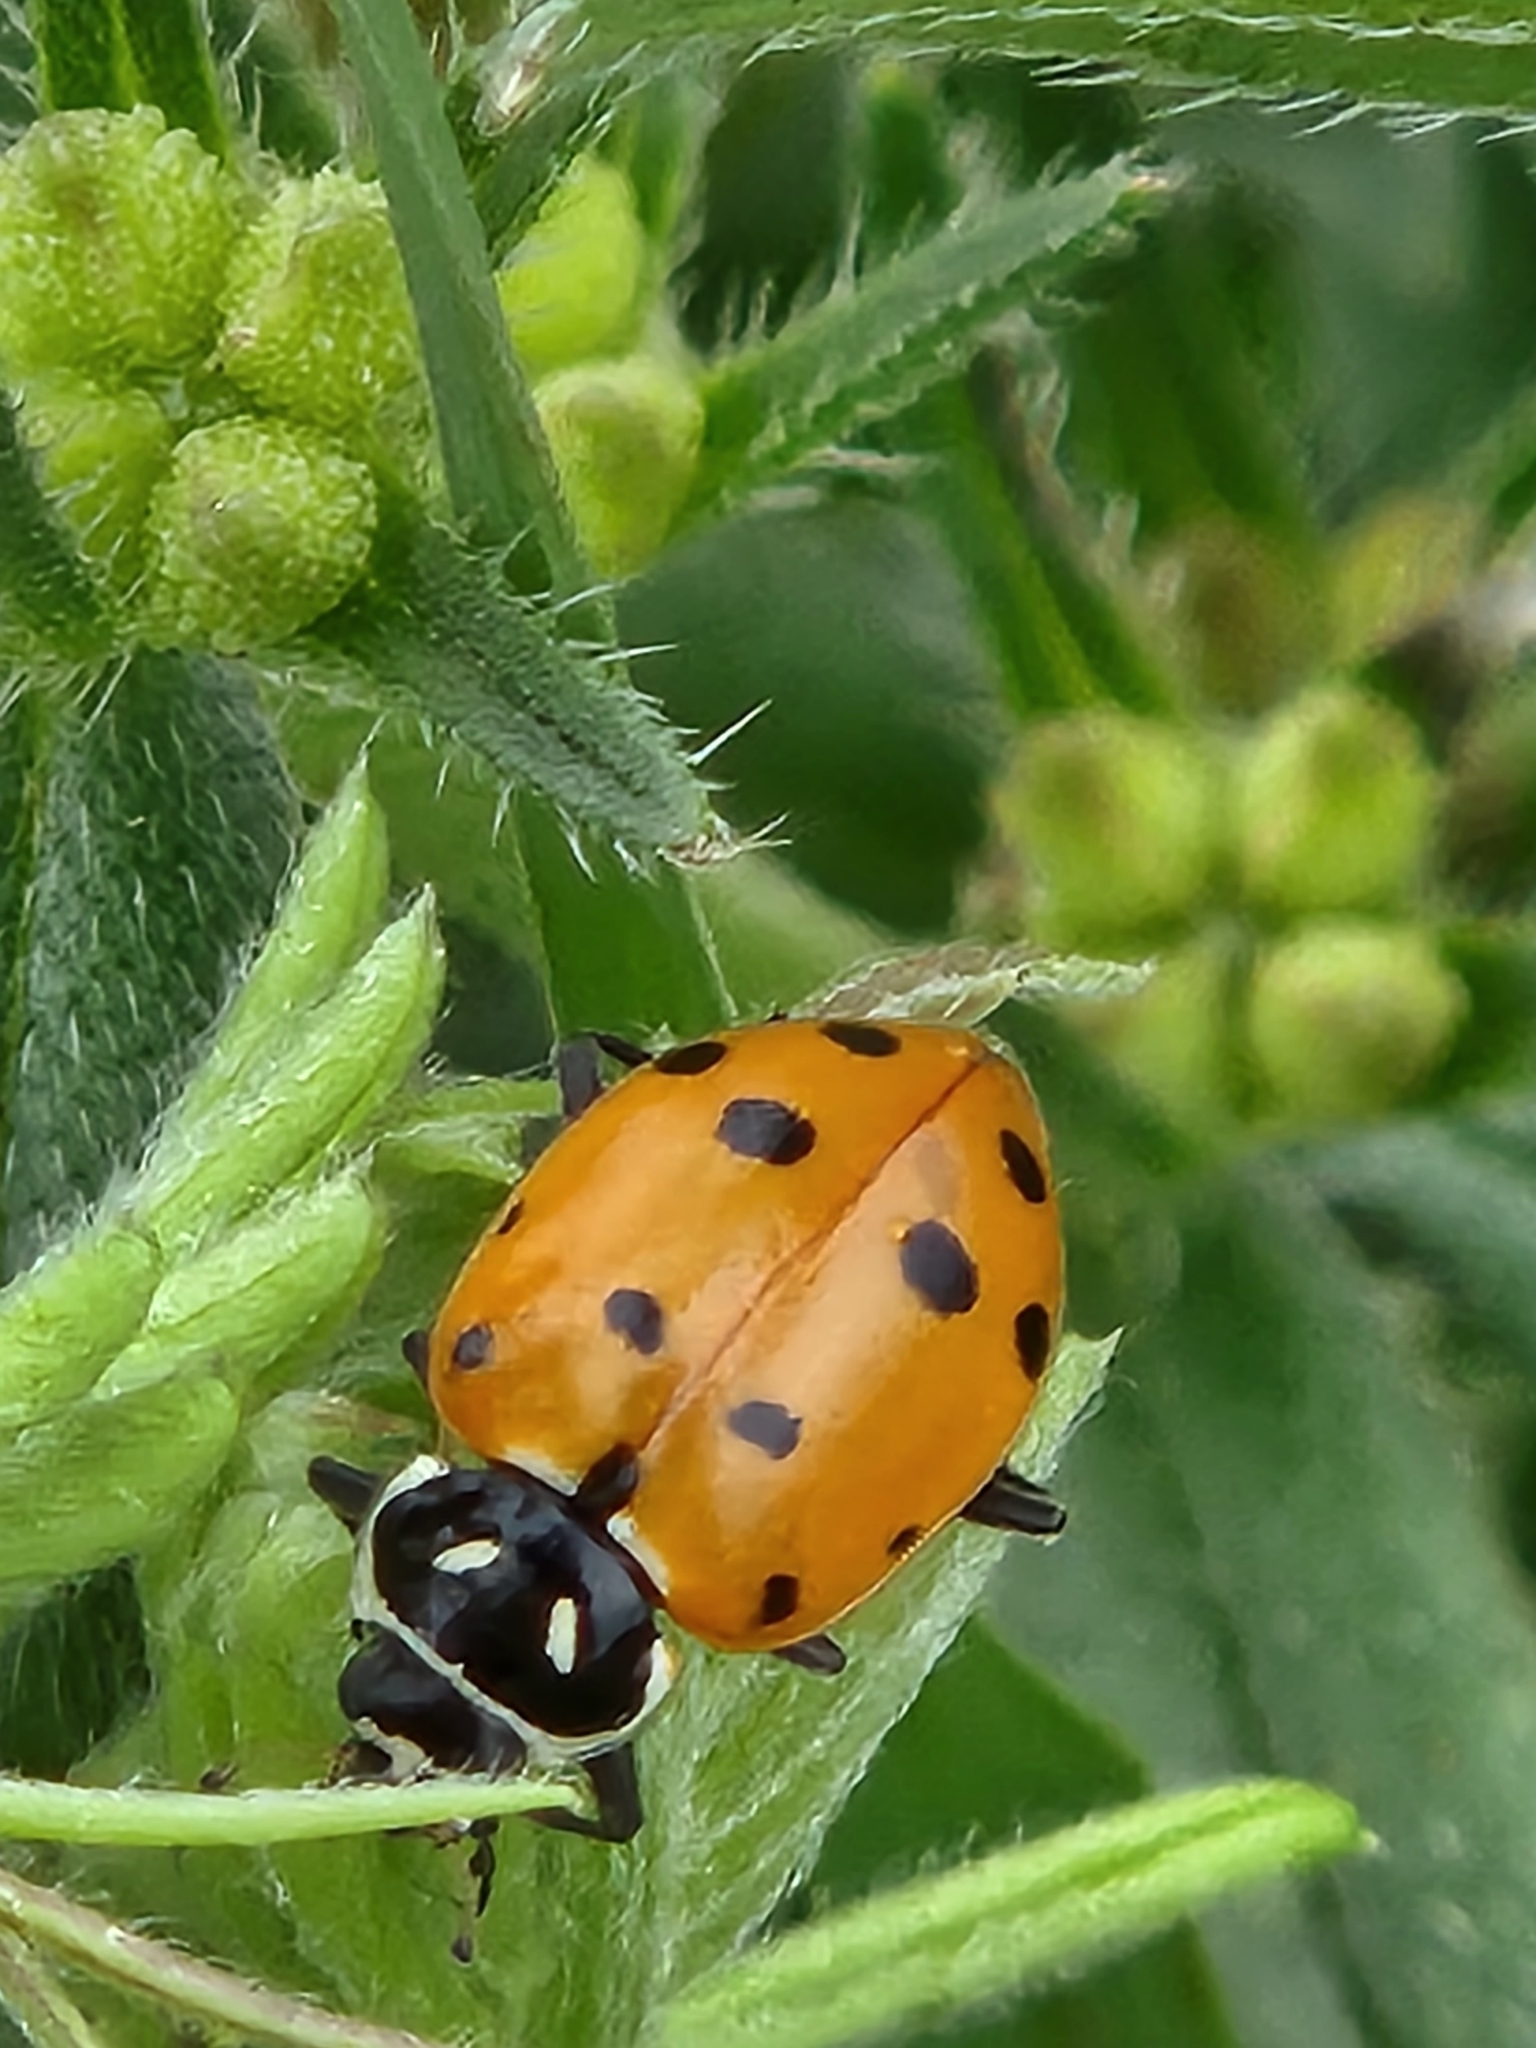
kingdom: Animalia
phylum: Arthropoda
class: Insecta
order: Coleoptera
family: Coccinellidae
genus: Hippodamia
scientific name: Hippodamia convergens
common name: Convergent lady beetle
